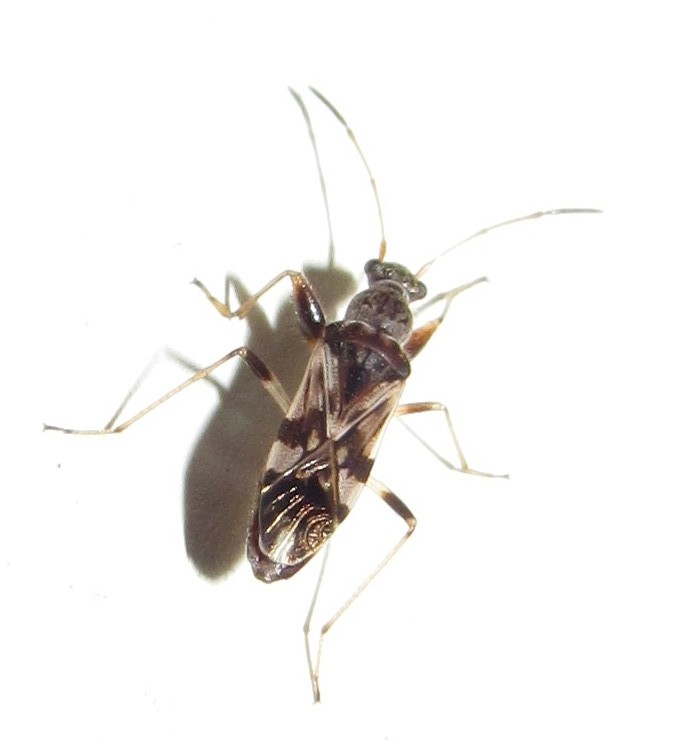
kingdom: Animalia
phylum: Arthropoda
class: Insecta
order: Hemiptera
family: Rhyparochromidae
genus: Neopamera
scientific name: Neopamera bilobata
